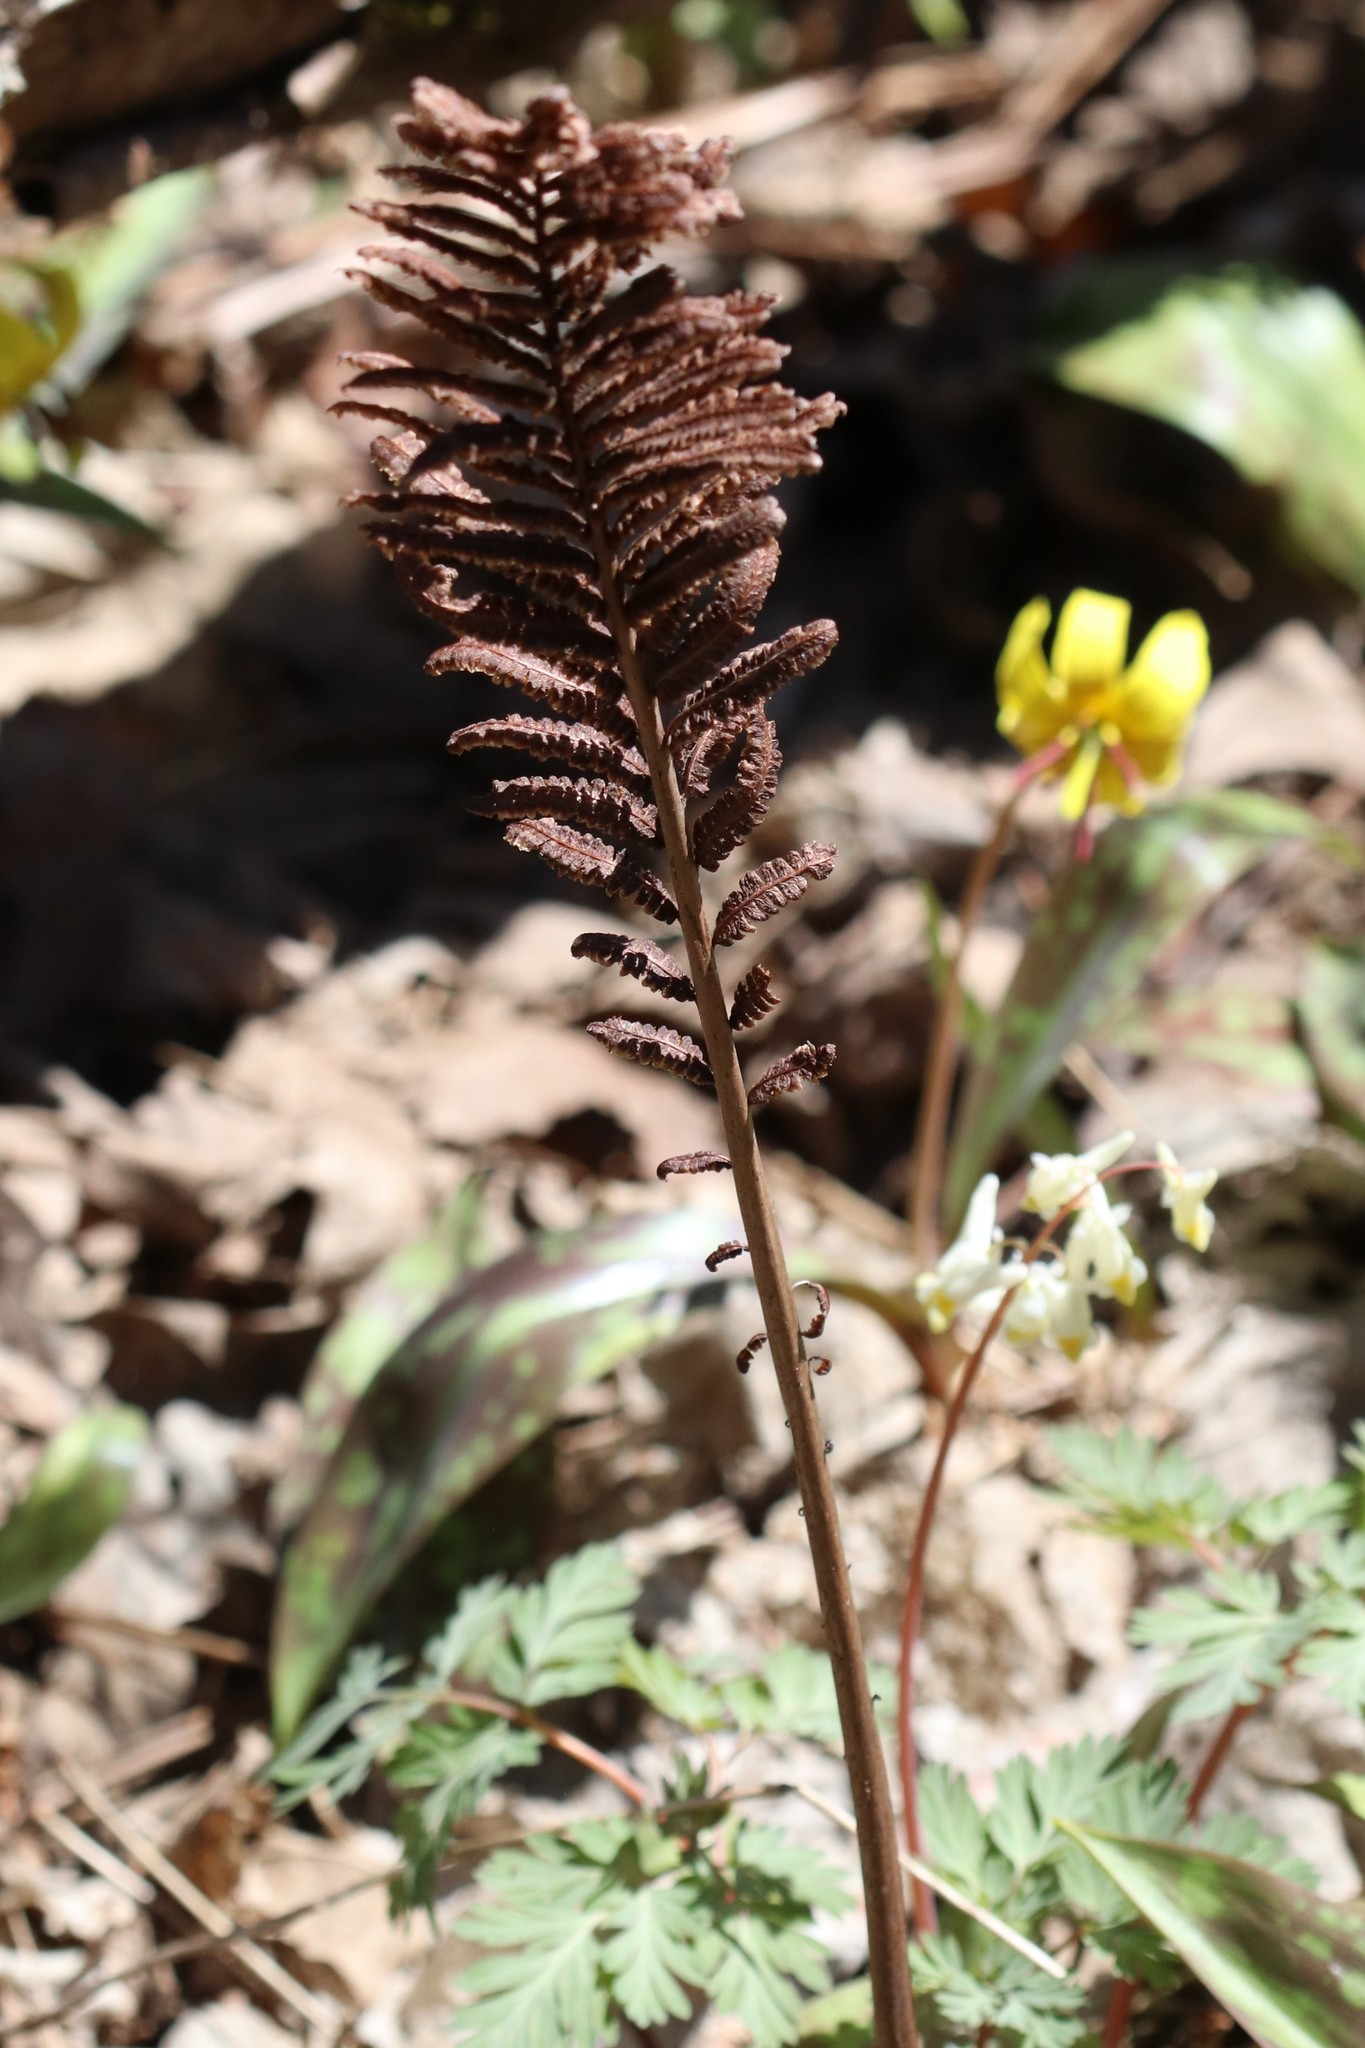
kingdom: Plantae
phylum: Tracheophyta
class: Polypodiopsida
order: Polypodiales
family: Onocleaceae
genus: Matteuccia
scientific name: Matteuccia struthiopteris
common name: Ostrich fern
